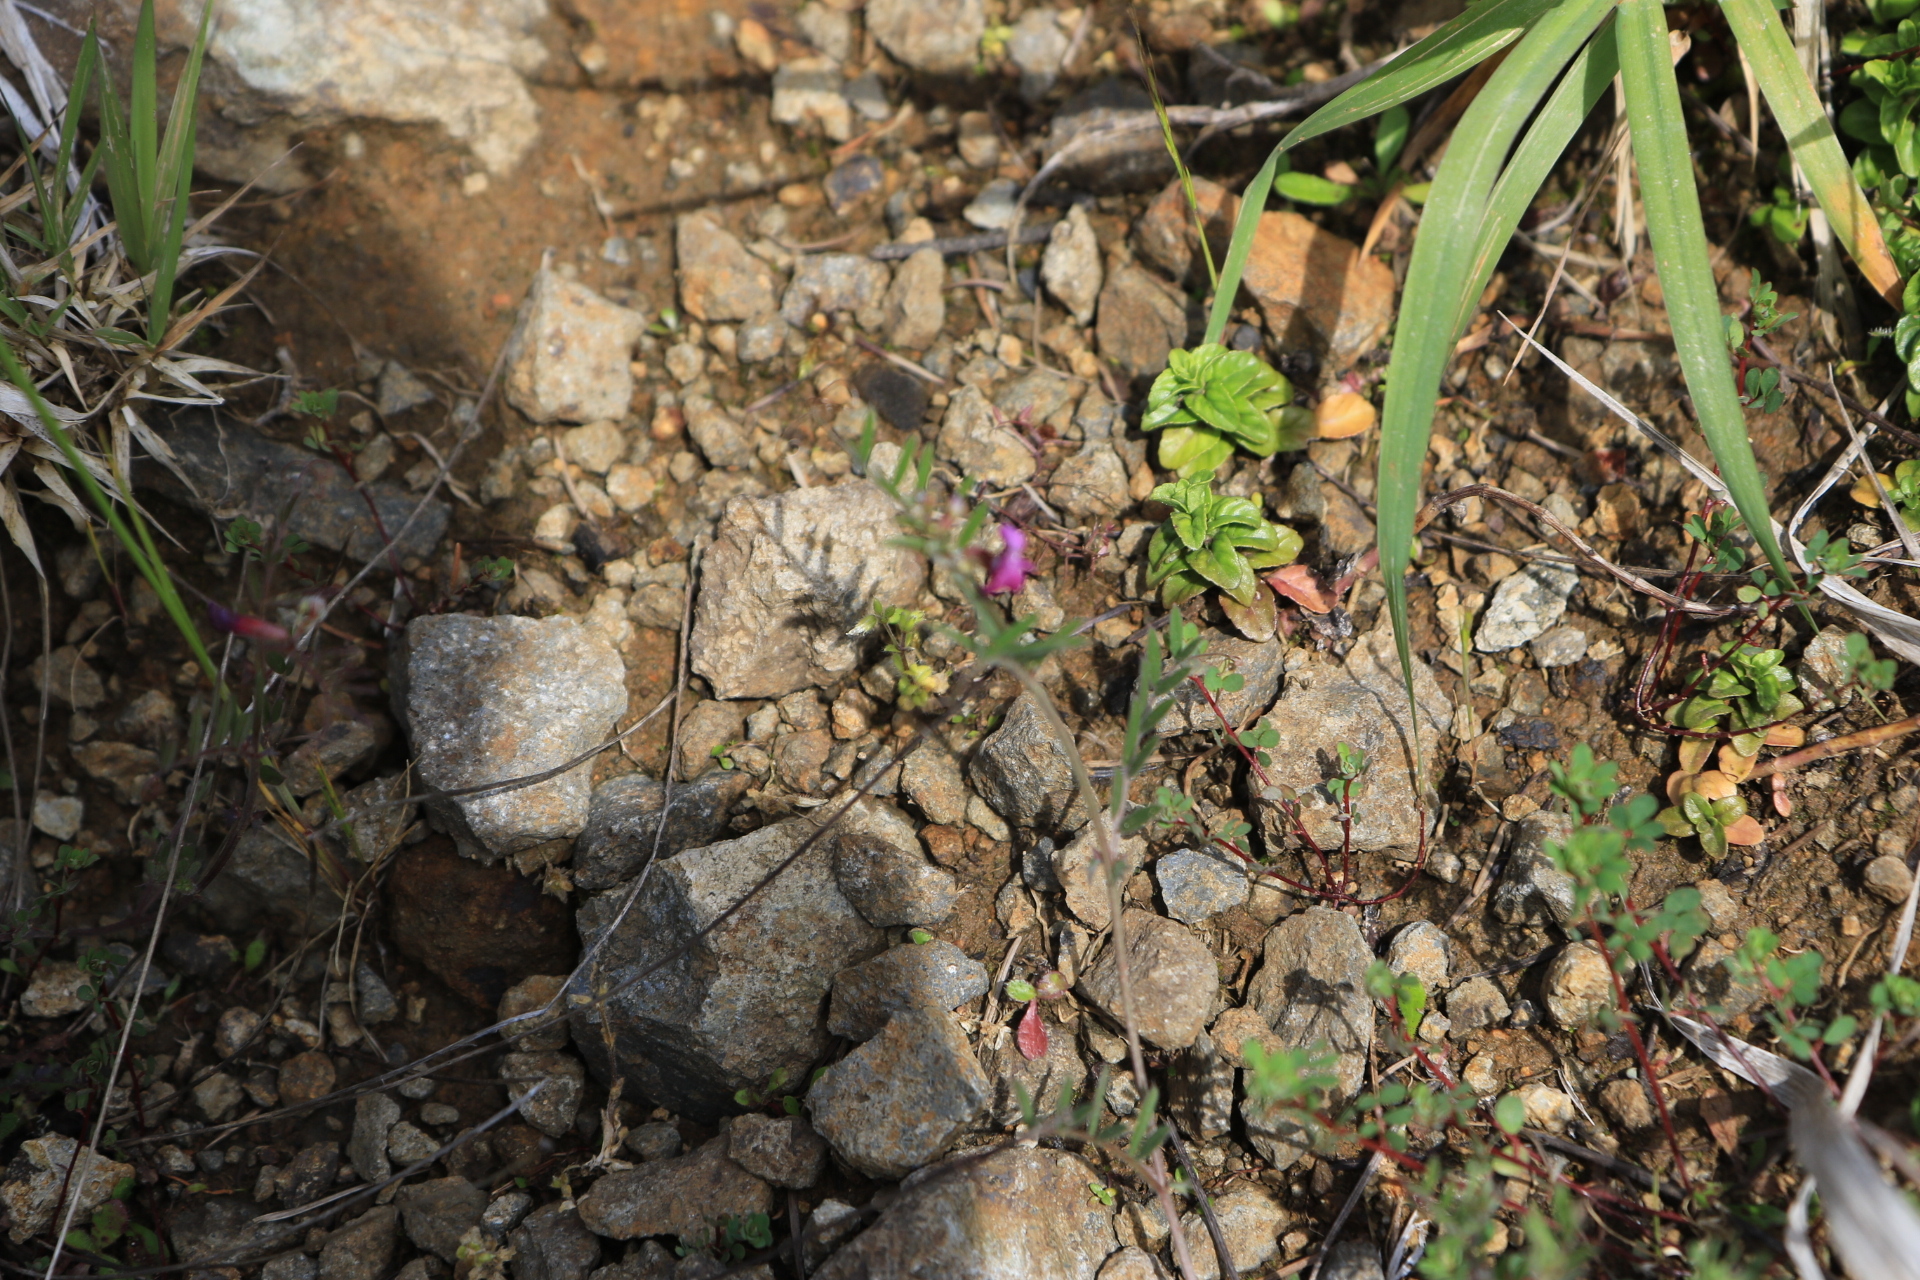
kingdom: Plantae
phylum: Tracheophyta
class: Magnoliopsida
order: Fabales
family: Fabaceae
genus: Vicia
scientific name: Vicia sativa
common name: Garden vetch
